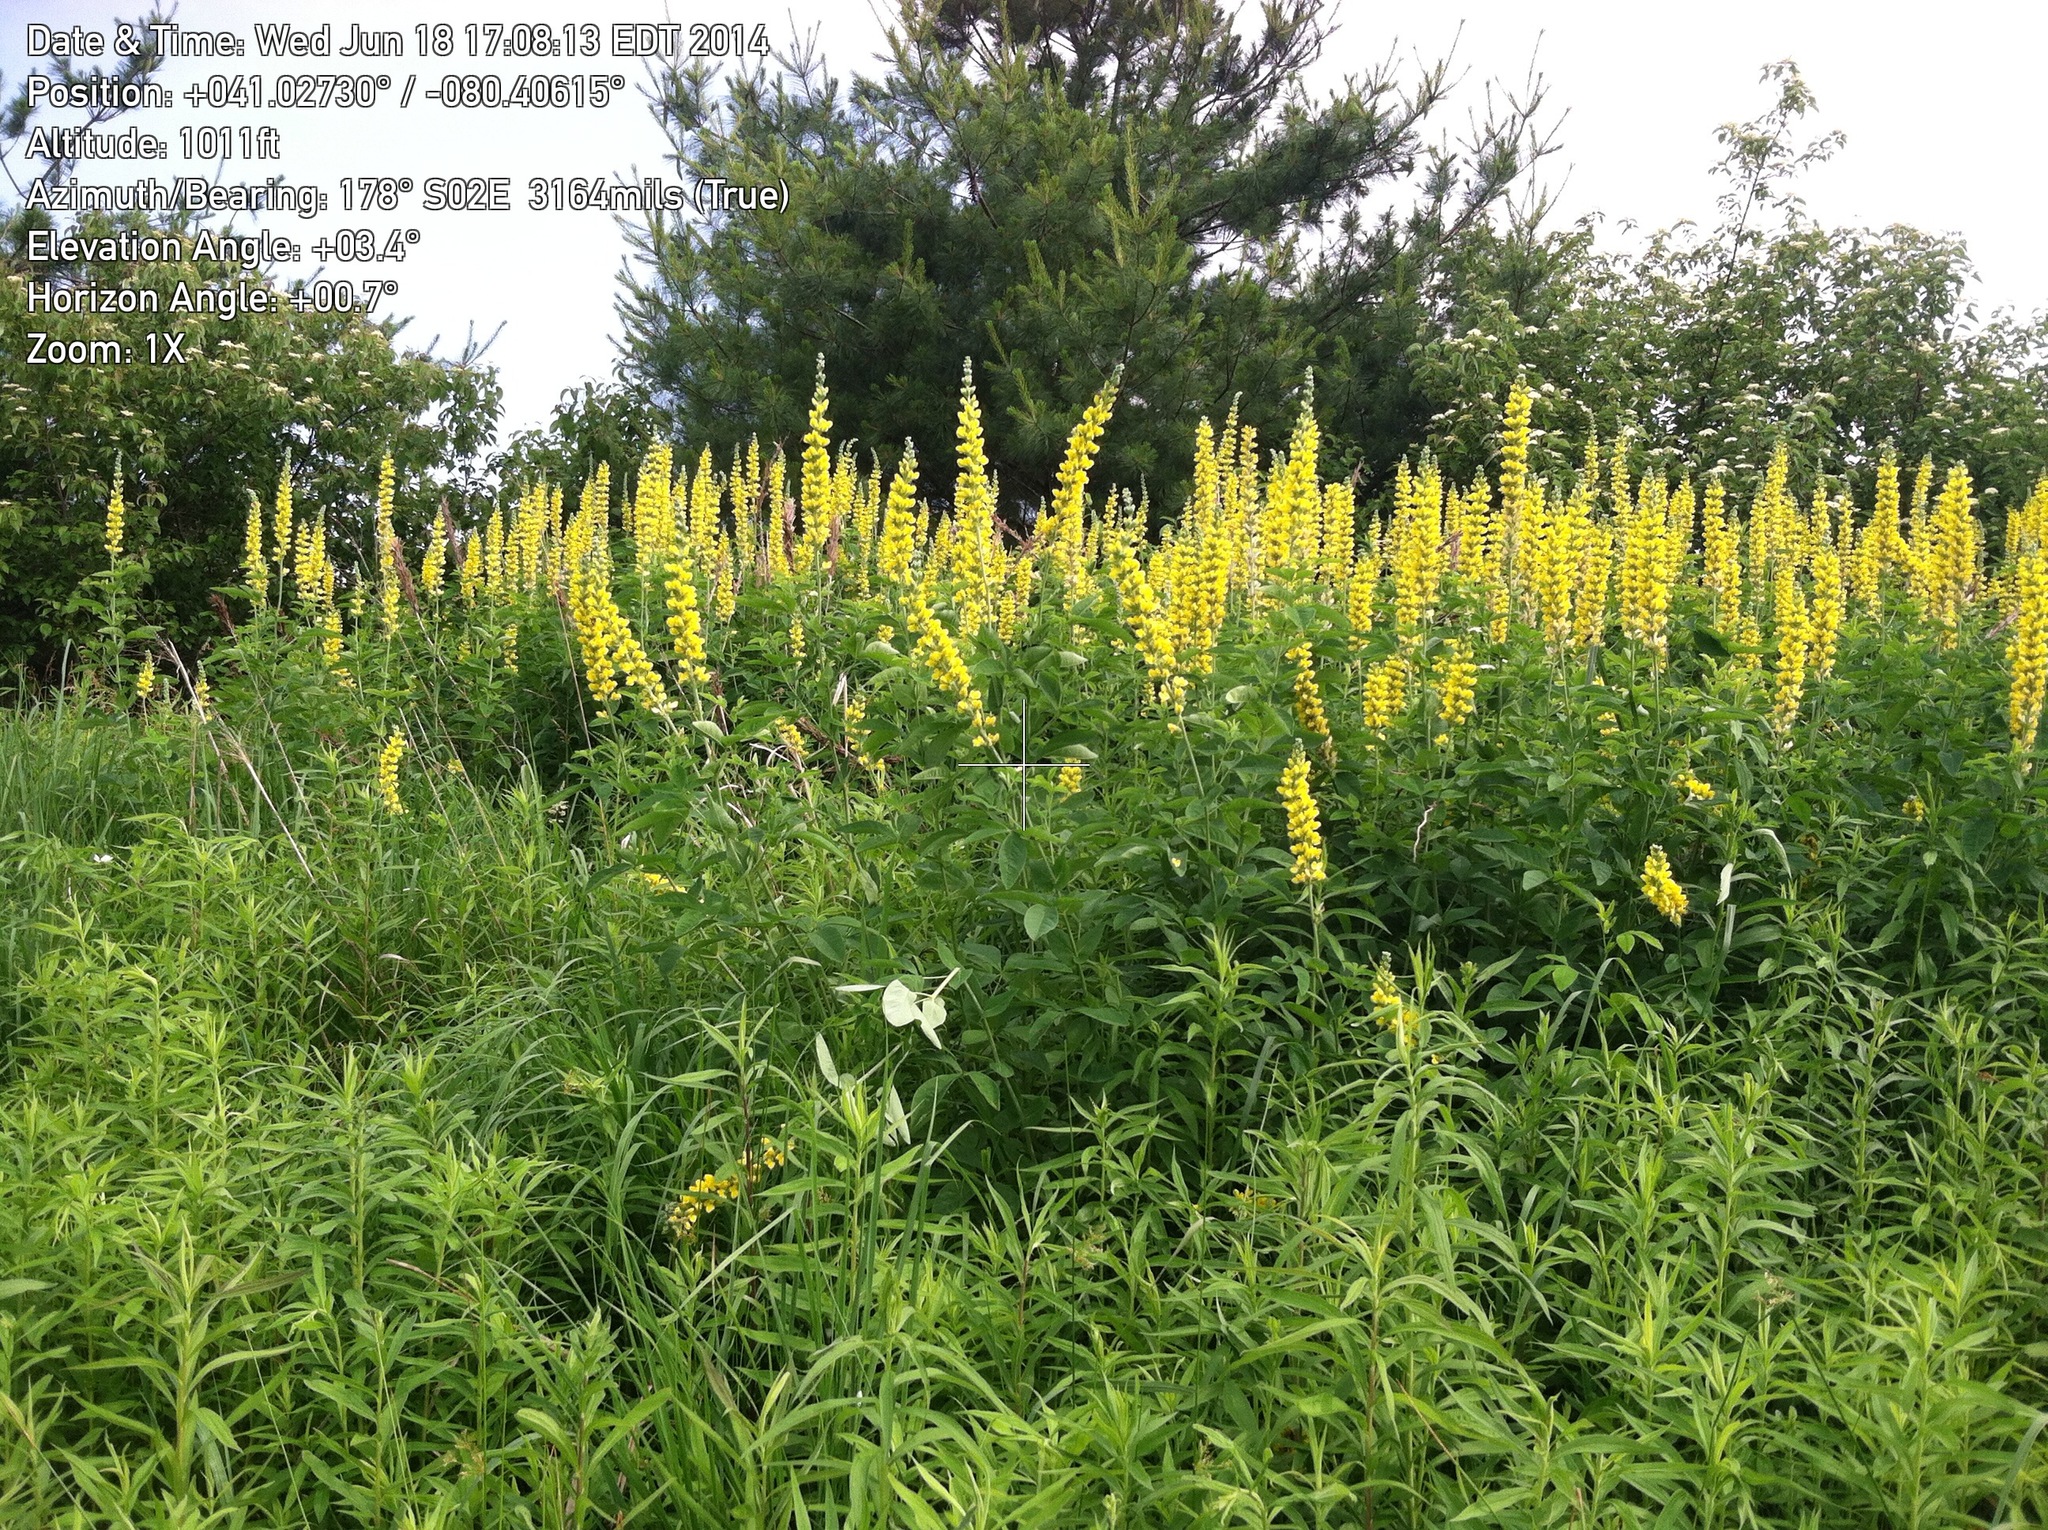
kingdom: Plantae
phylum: Tracheophyta
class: Magnoliopsida
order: Fabales
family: Fabaceae
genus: Thermopsis
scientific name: Thermopsis villosa
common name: Carolina-lupin
